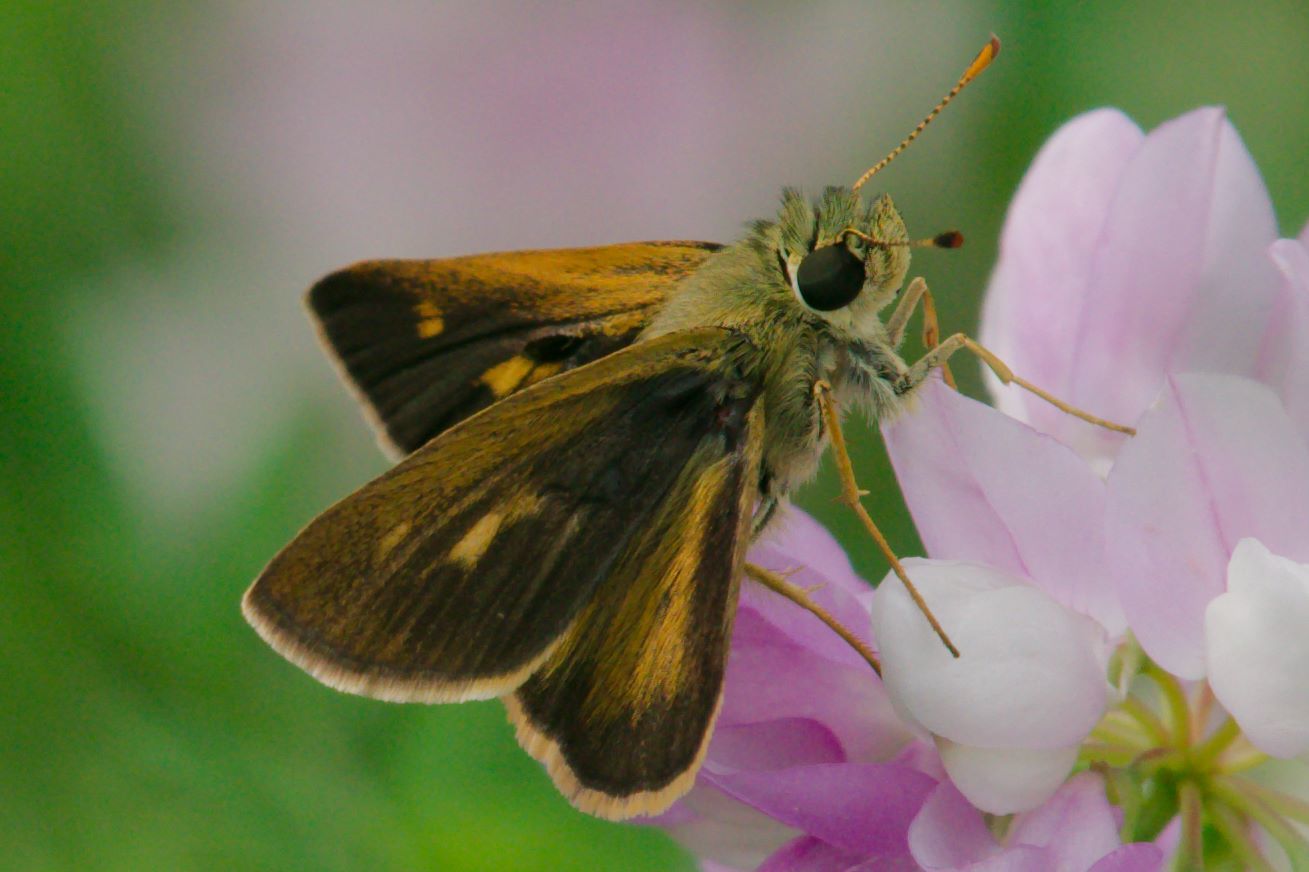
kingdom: Animalia
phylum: Arthropoda
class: Insecta
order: Lepidoptera
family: Hesperiidae
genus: Polites
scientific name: Polites egeremet
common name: Northern broken-dash
